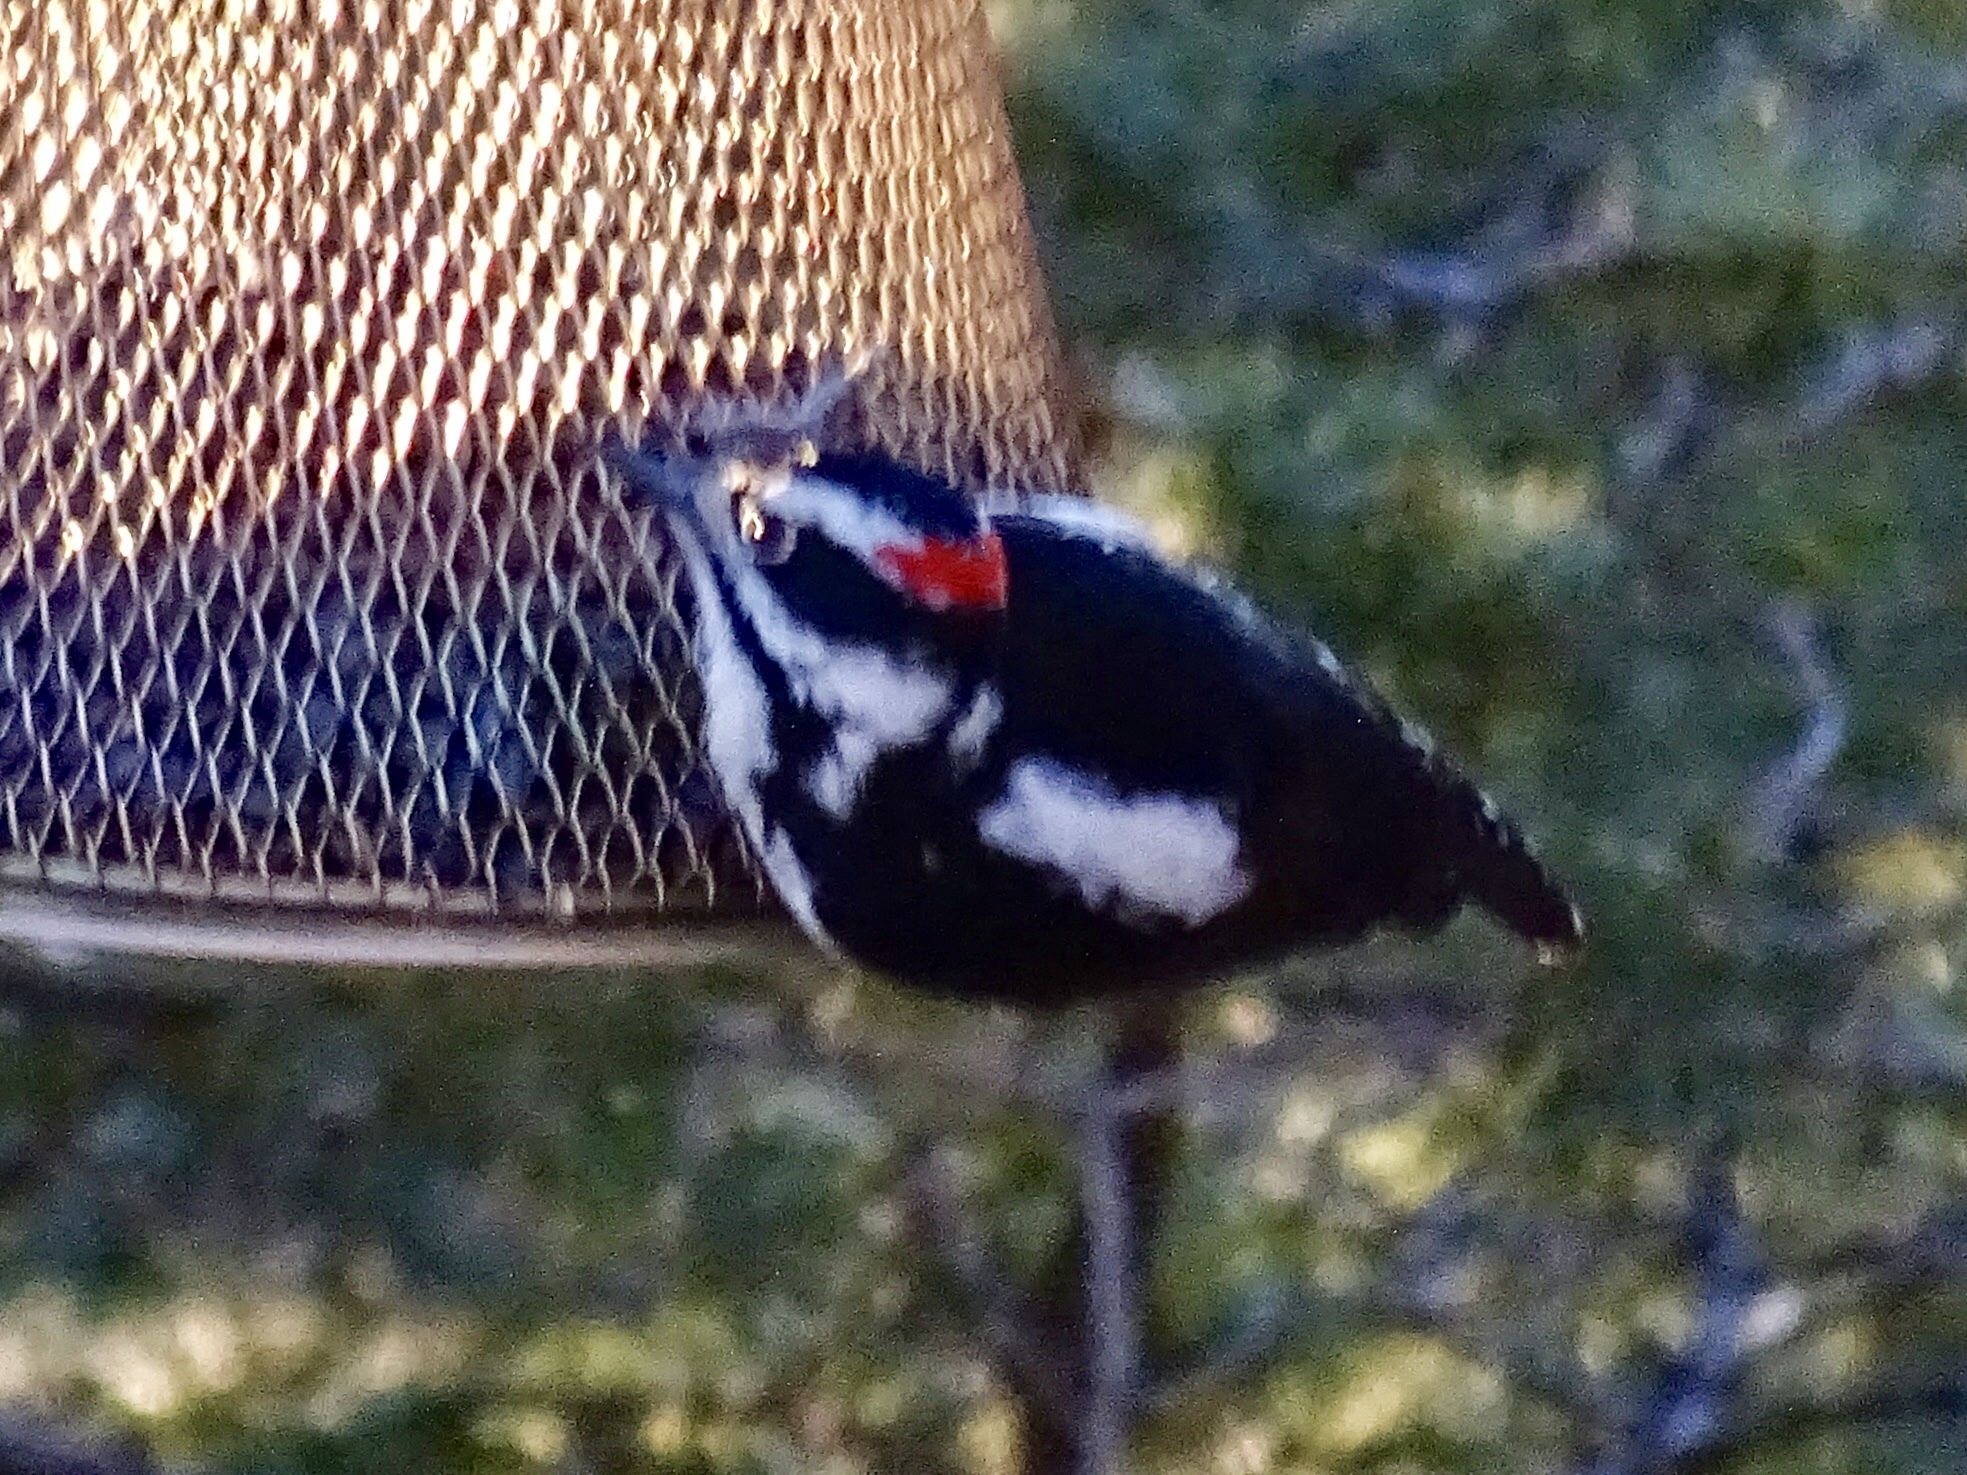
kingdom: Animalia
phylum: Chordata
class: Aves
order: Piciformes
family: Picidae
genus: Leuconotopicus
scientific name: Leuconotopicus villosus
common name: Hairy woodpecker
